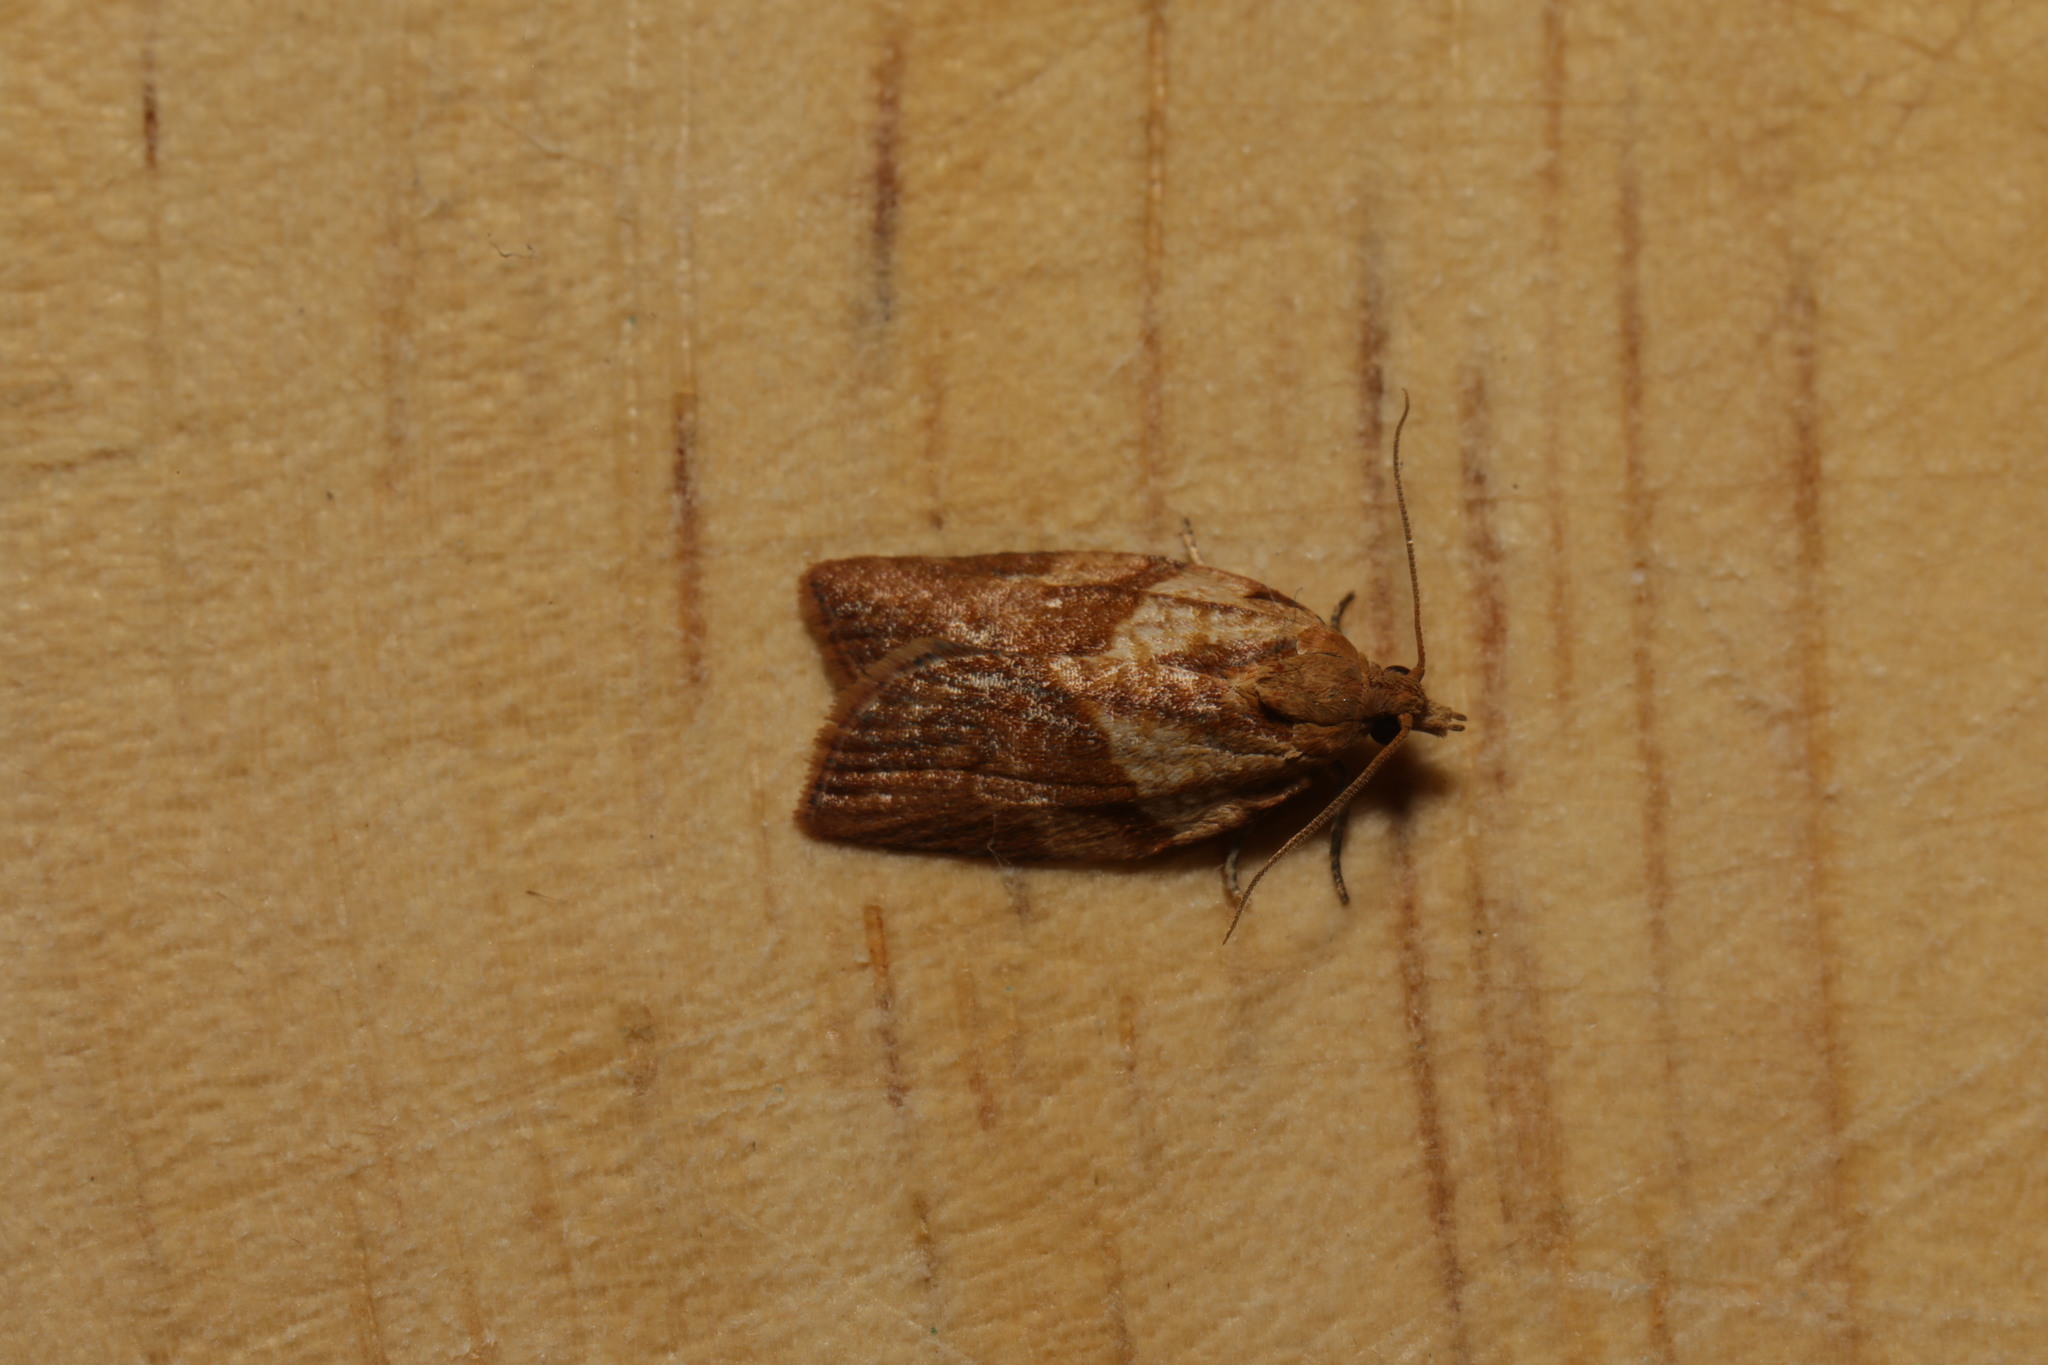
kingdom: Animalia
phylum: Arthropoda
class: Insecta
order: Lepidoptera
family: Tortricidae
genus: Epiphyas
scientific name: Epiphyas postvittana
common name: Light brown apple moth
